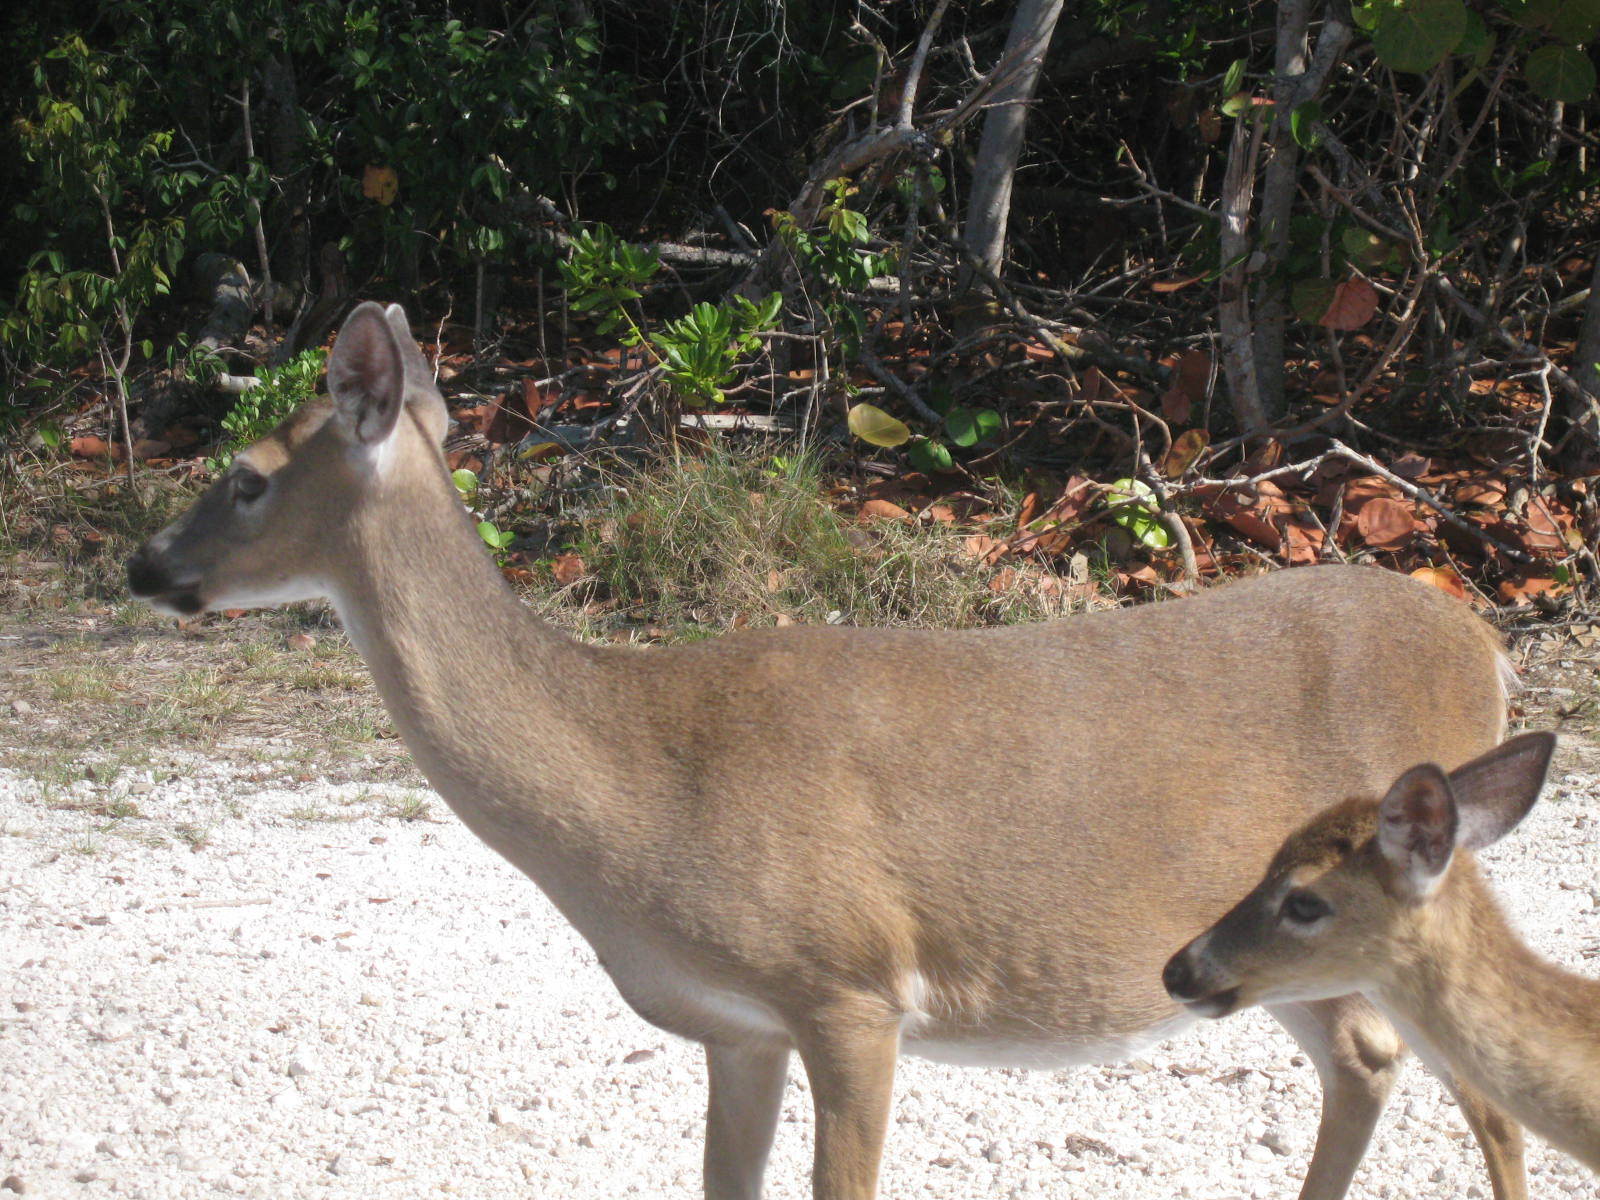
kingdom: Animalia
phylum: Chordata
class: Mammalia
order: Artiodactyla
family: Cervidae
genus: Odocoileus
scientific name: Odocoileus virginianus
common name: White-tailed deer
